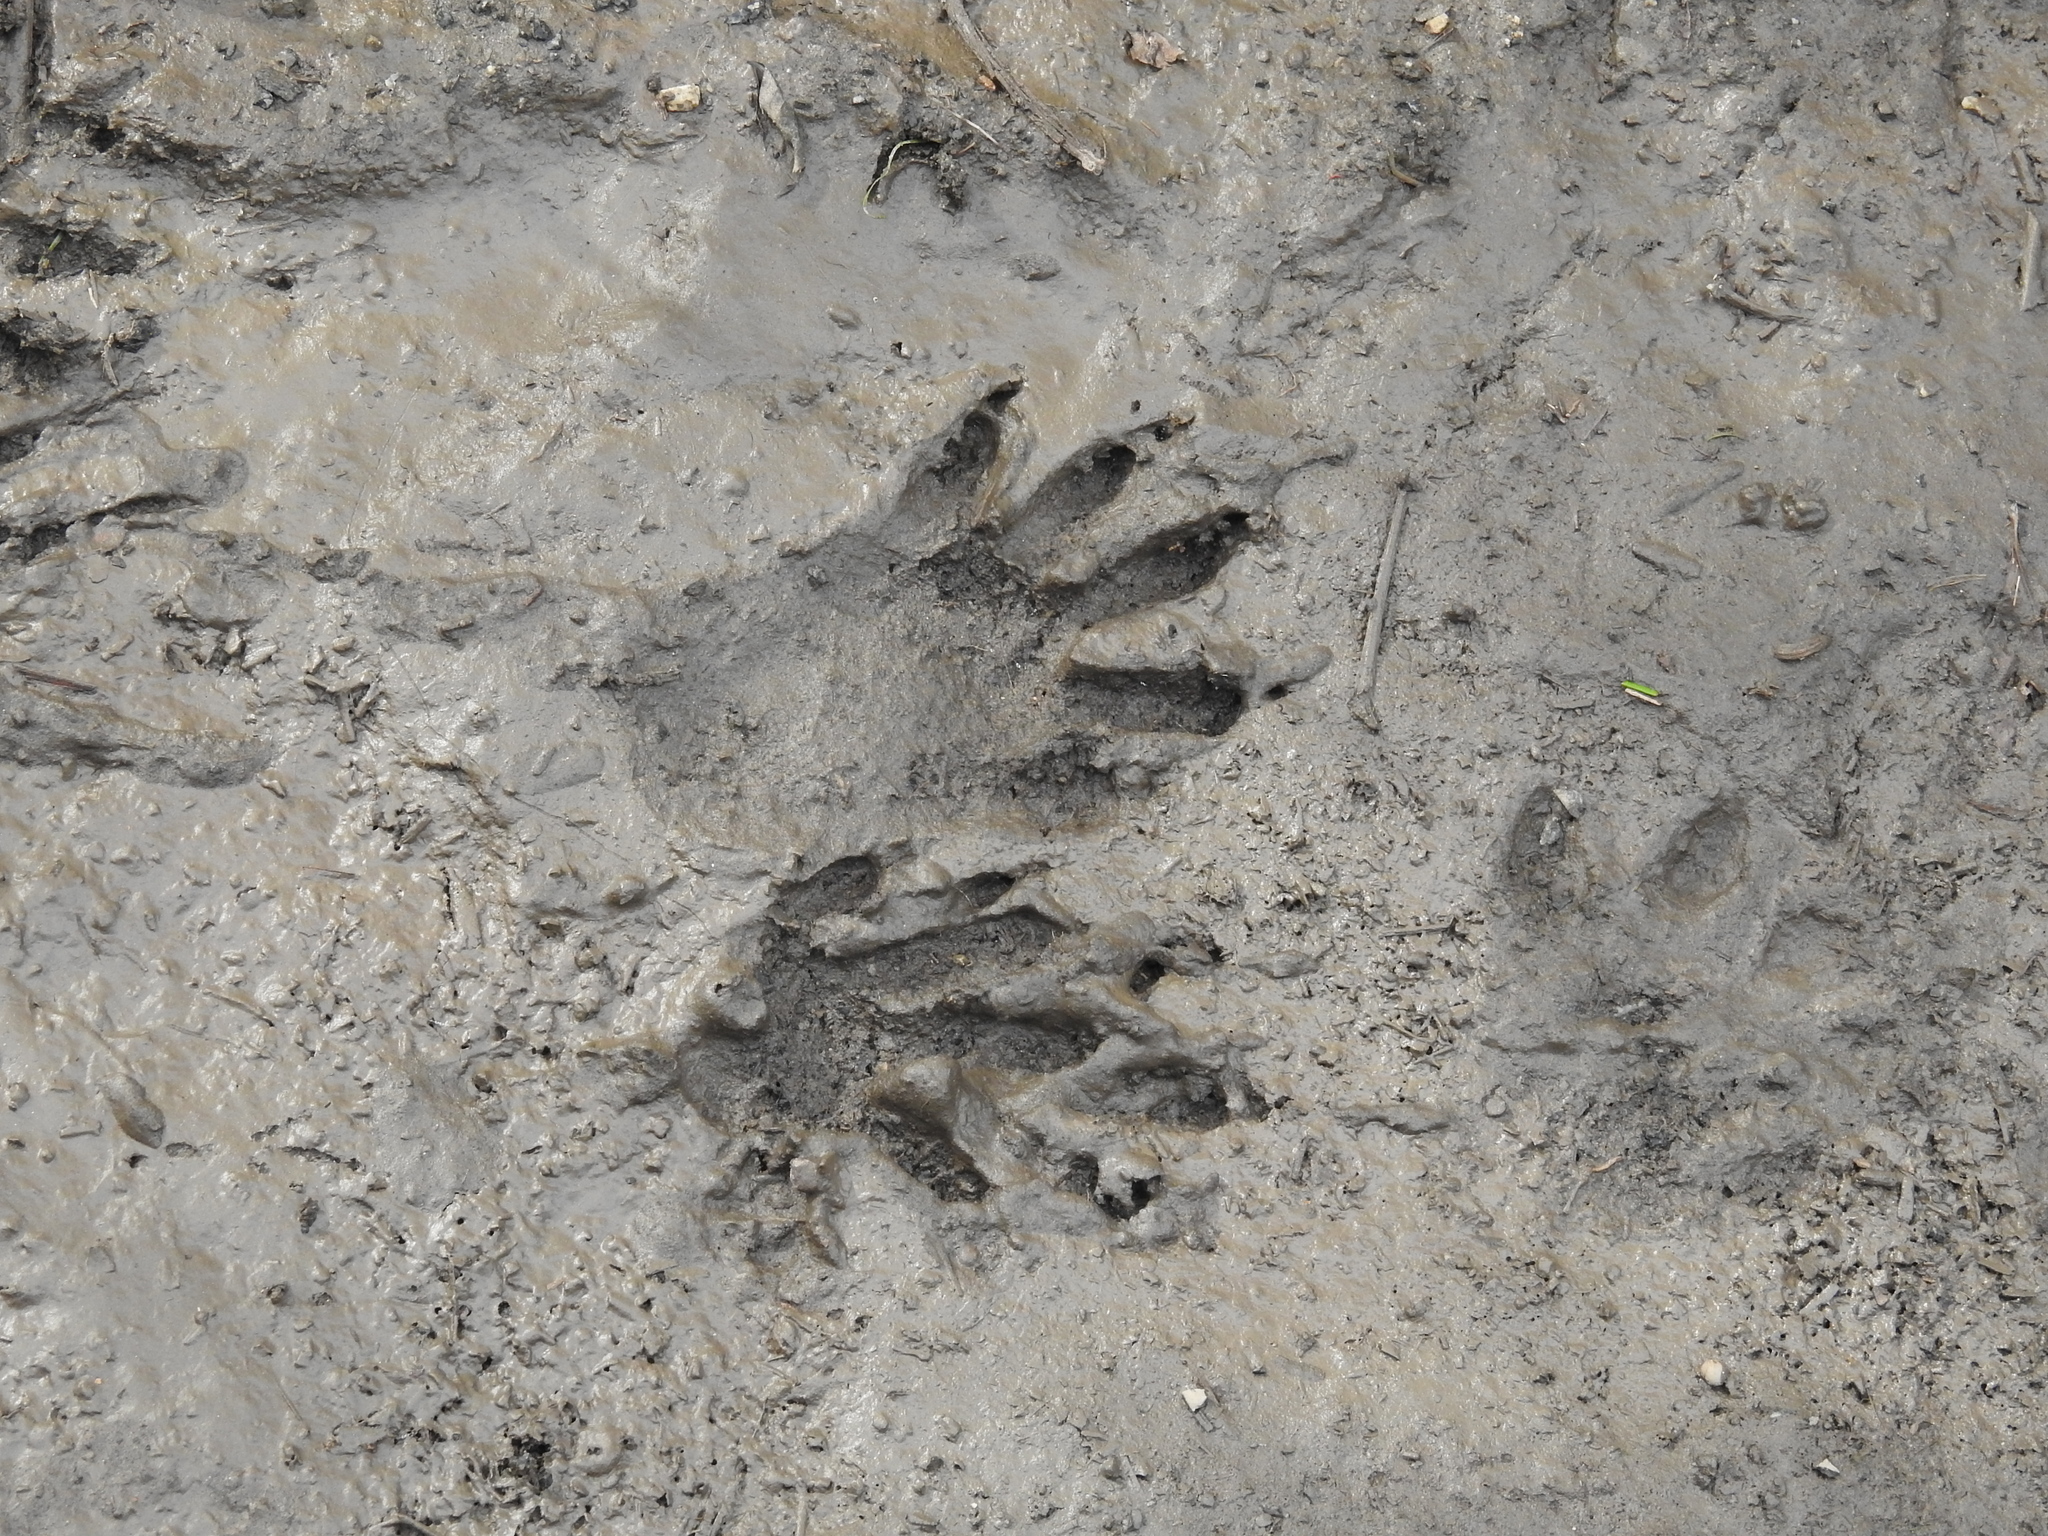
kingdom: Animalia
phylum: Chordata
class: Mammalia
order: Carnivora
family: Procyonidae
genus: Procyon
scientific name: Procyon lotor
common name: Raccoon
